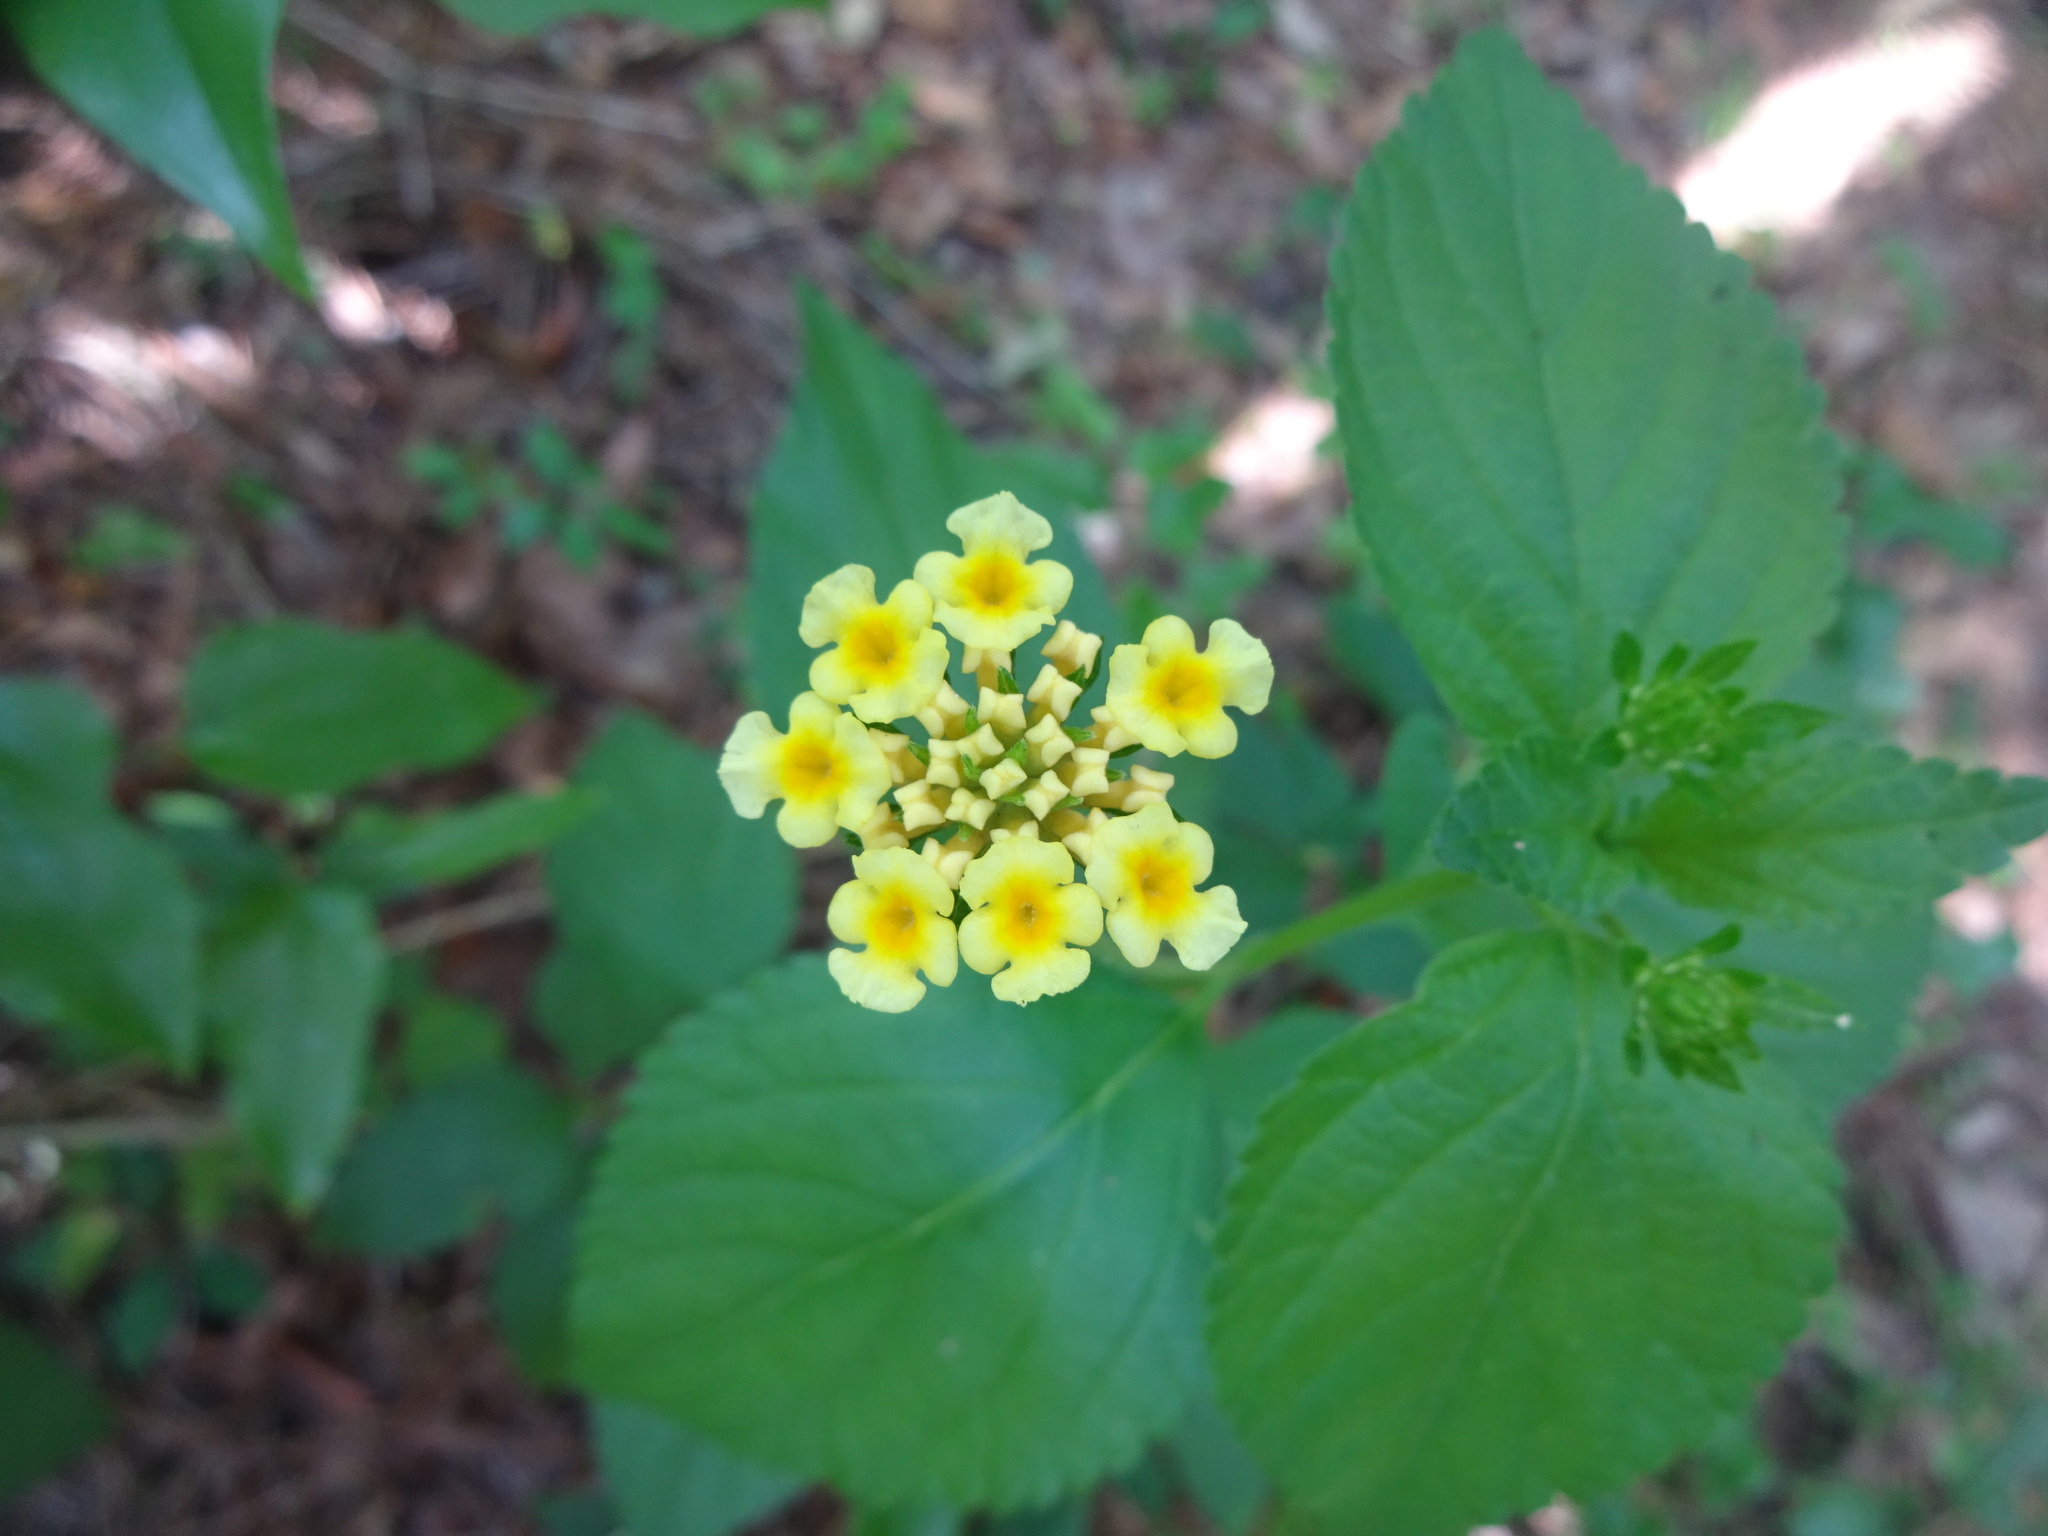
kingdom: Plantae
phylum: Tracheophyta
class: Magnoliopsida
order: Lamiales
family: Verbenaceae
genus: Lantana
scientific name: Lantana strigocamara
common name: Lantana
